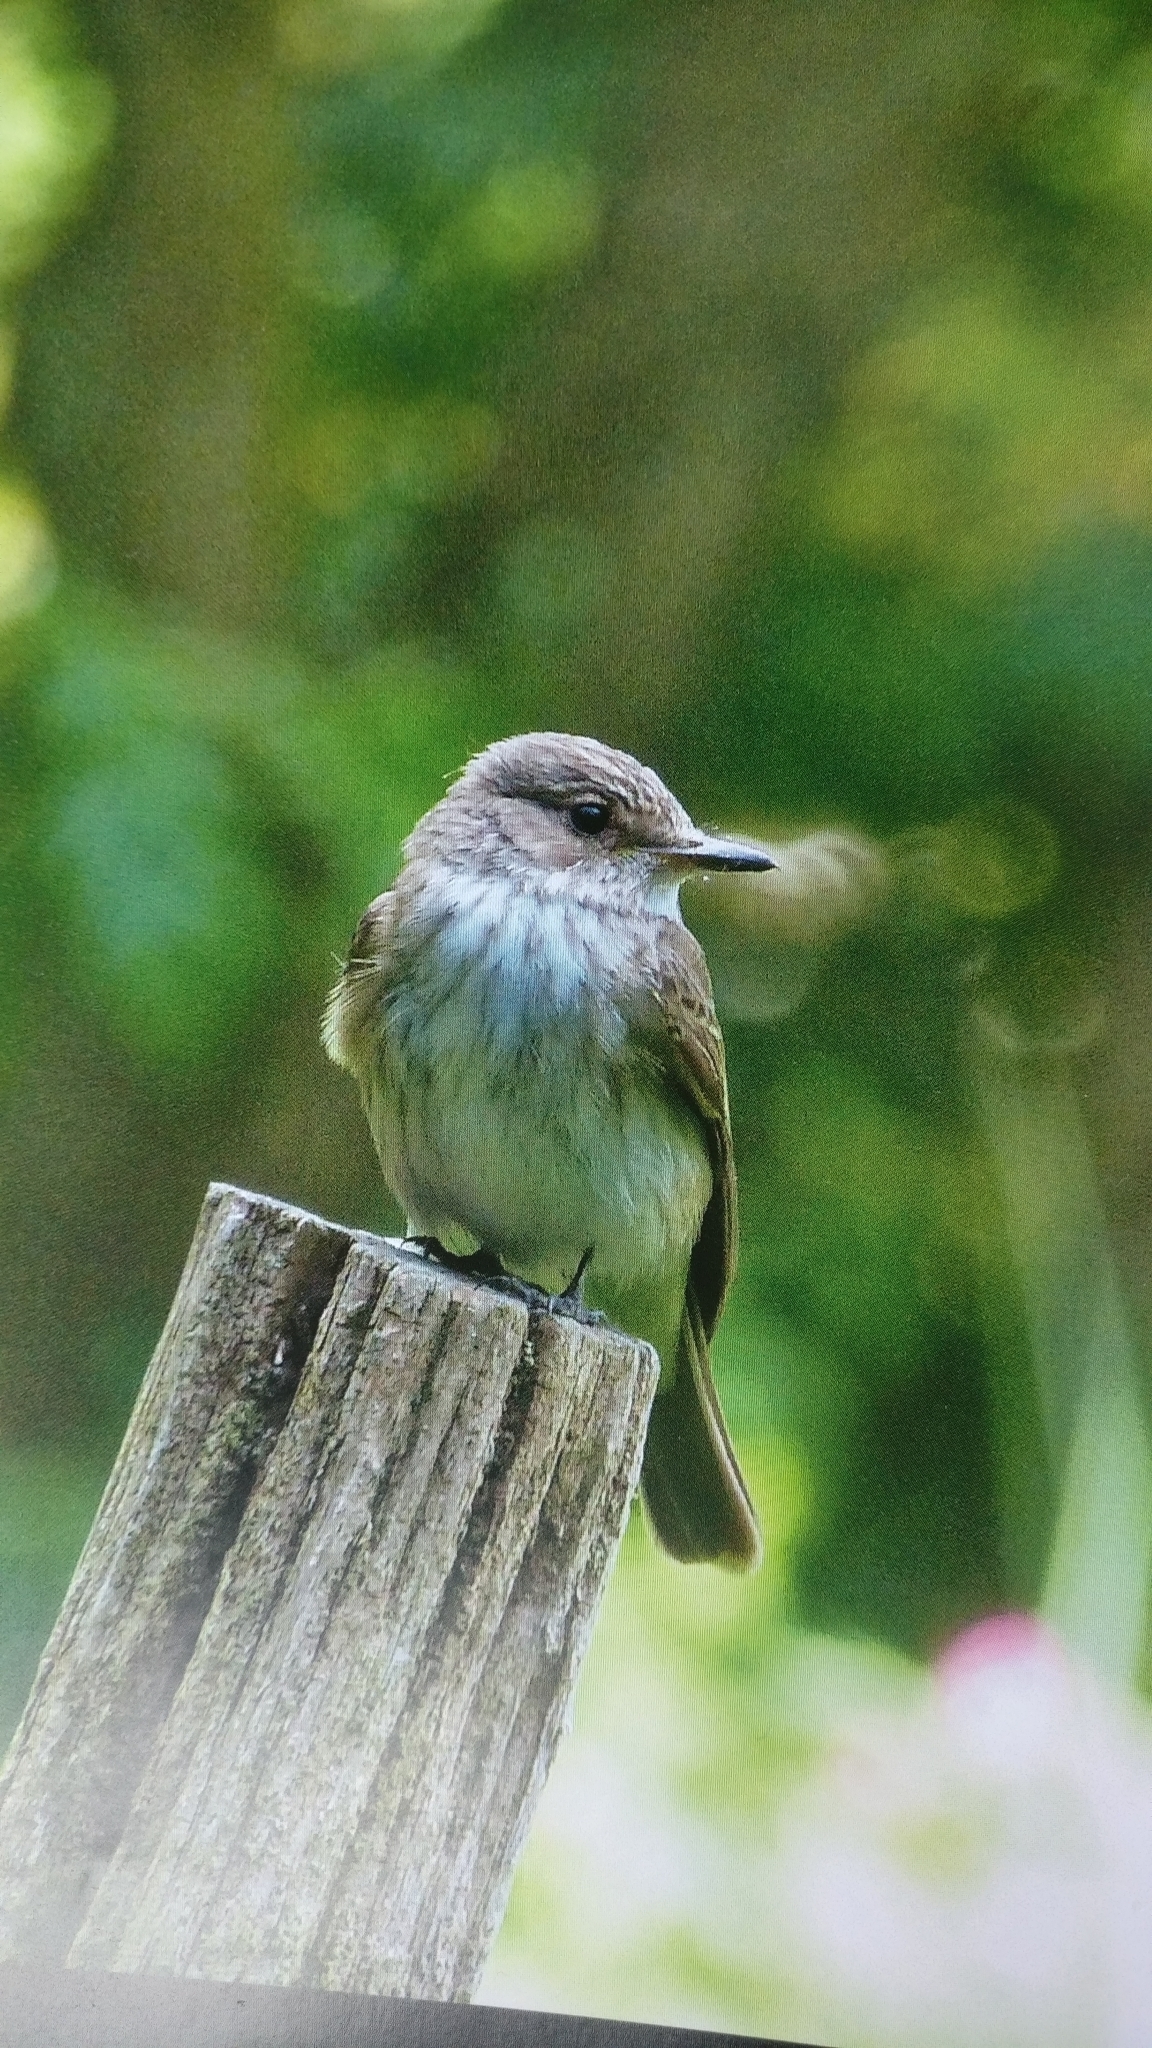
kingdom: Animalia
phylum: Chordata
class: Aves
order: Passeriformes
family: Muscicapidae
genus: Muscicapa
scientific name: Muscicapa striata
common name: Spotted flycatcher
